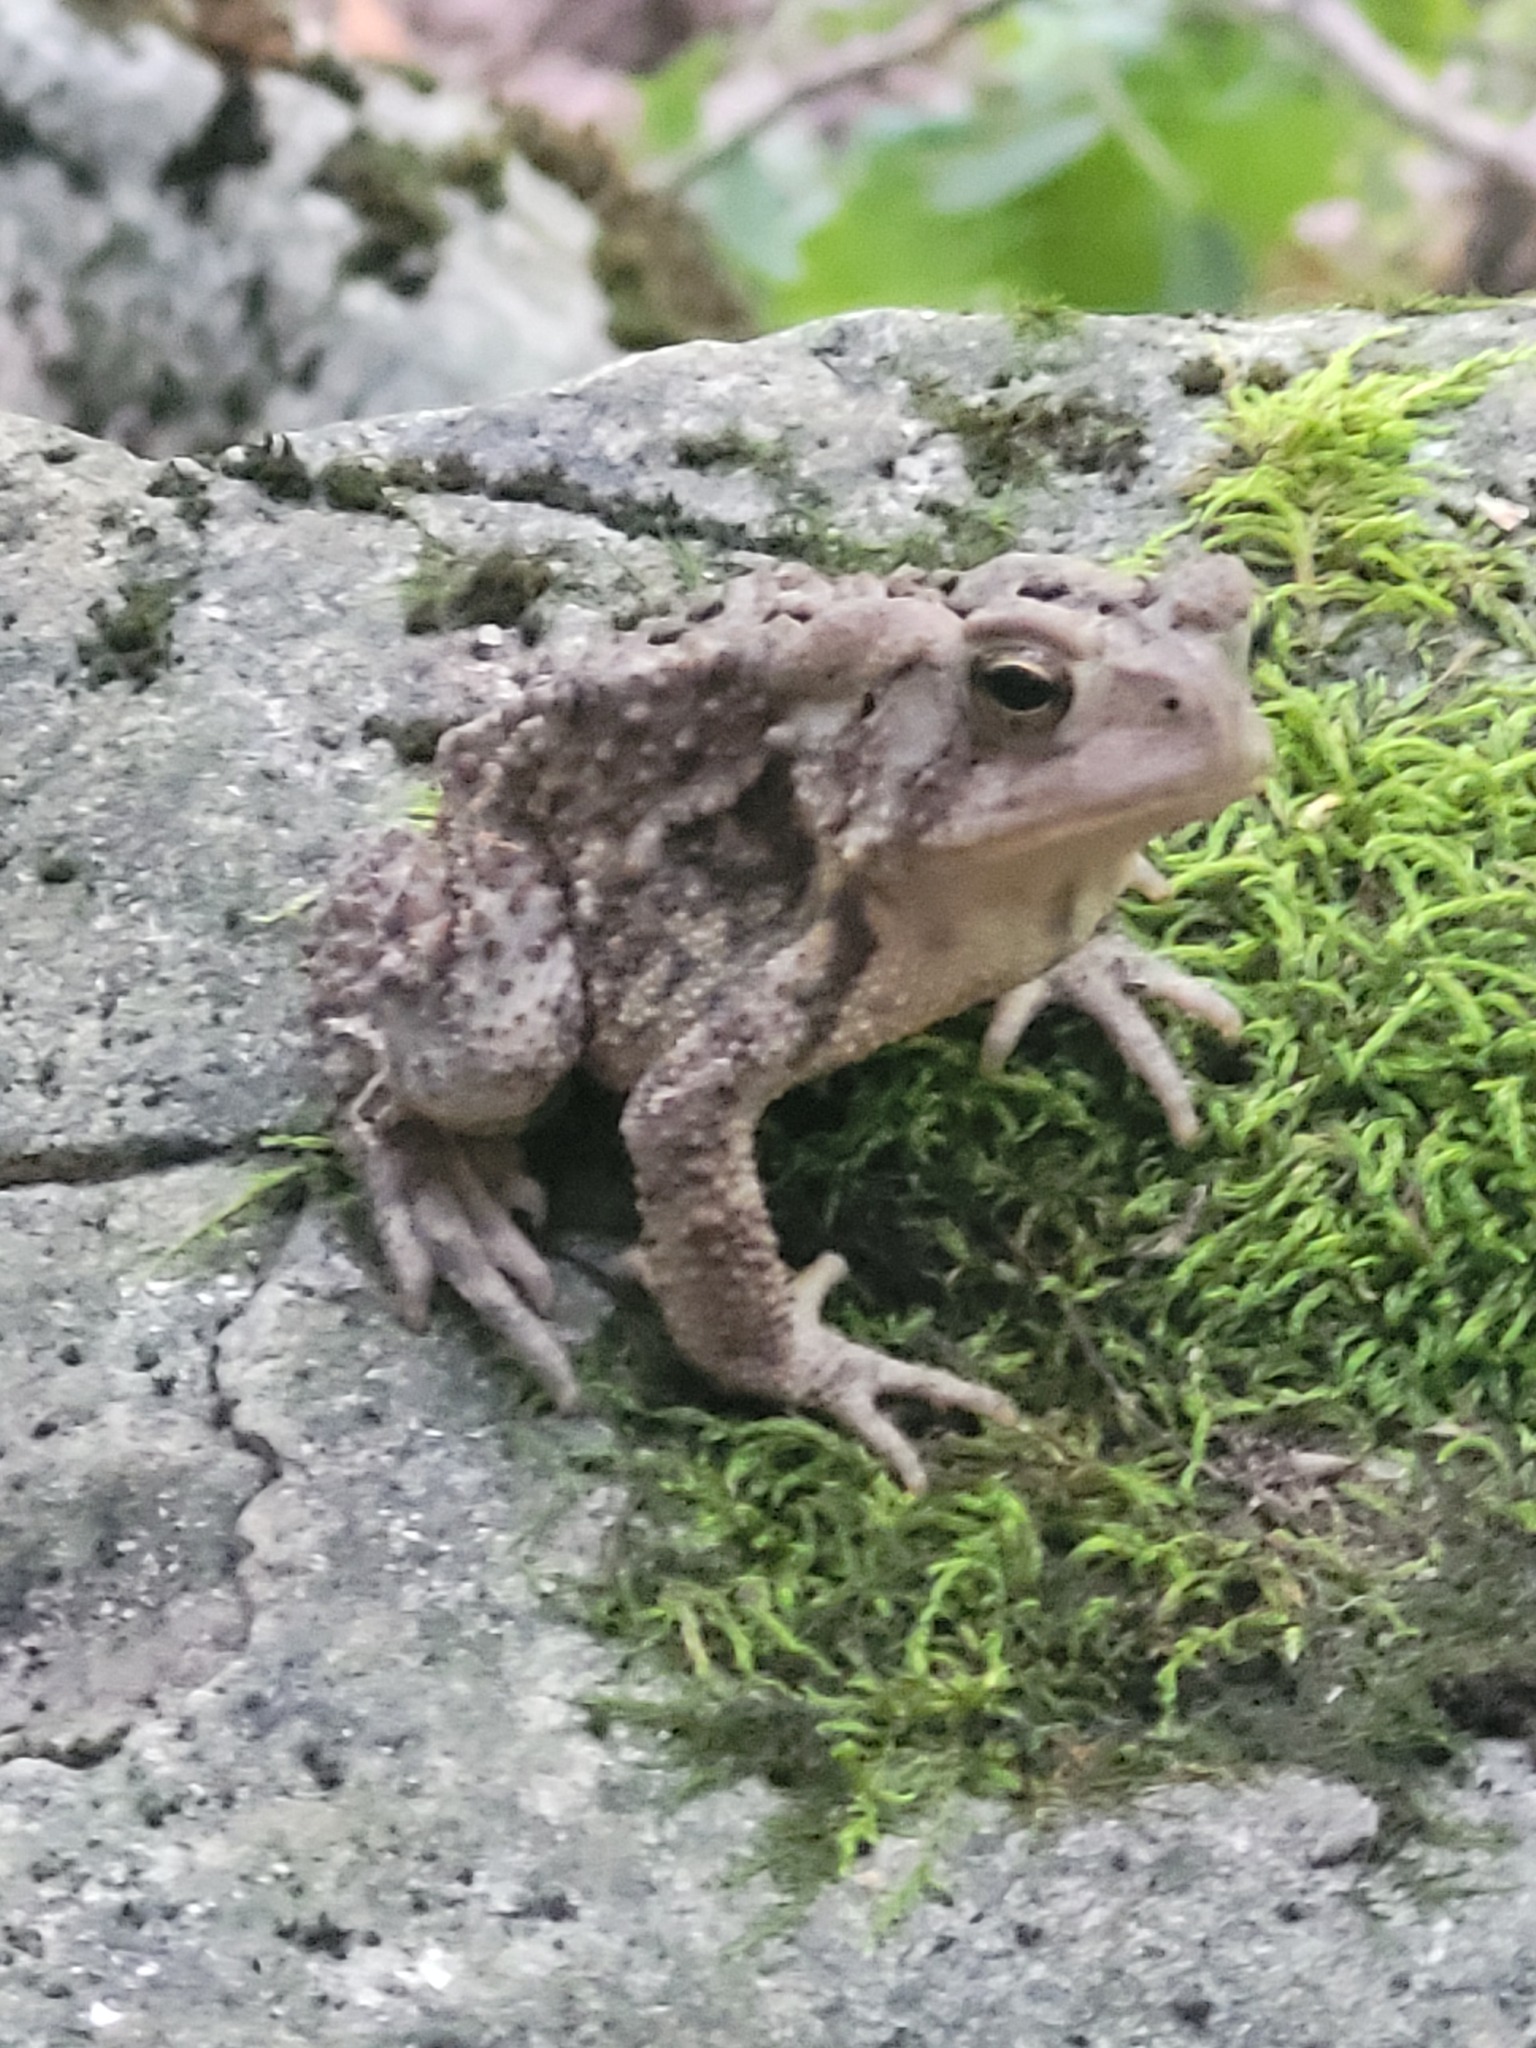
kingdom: Animalia
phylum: Chordata
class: Amphibia
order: Anura
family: Bufonidae
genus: Anaxyrus
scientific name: Anaxyrus americanus
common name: American toad
